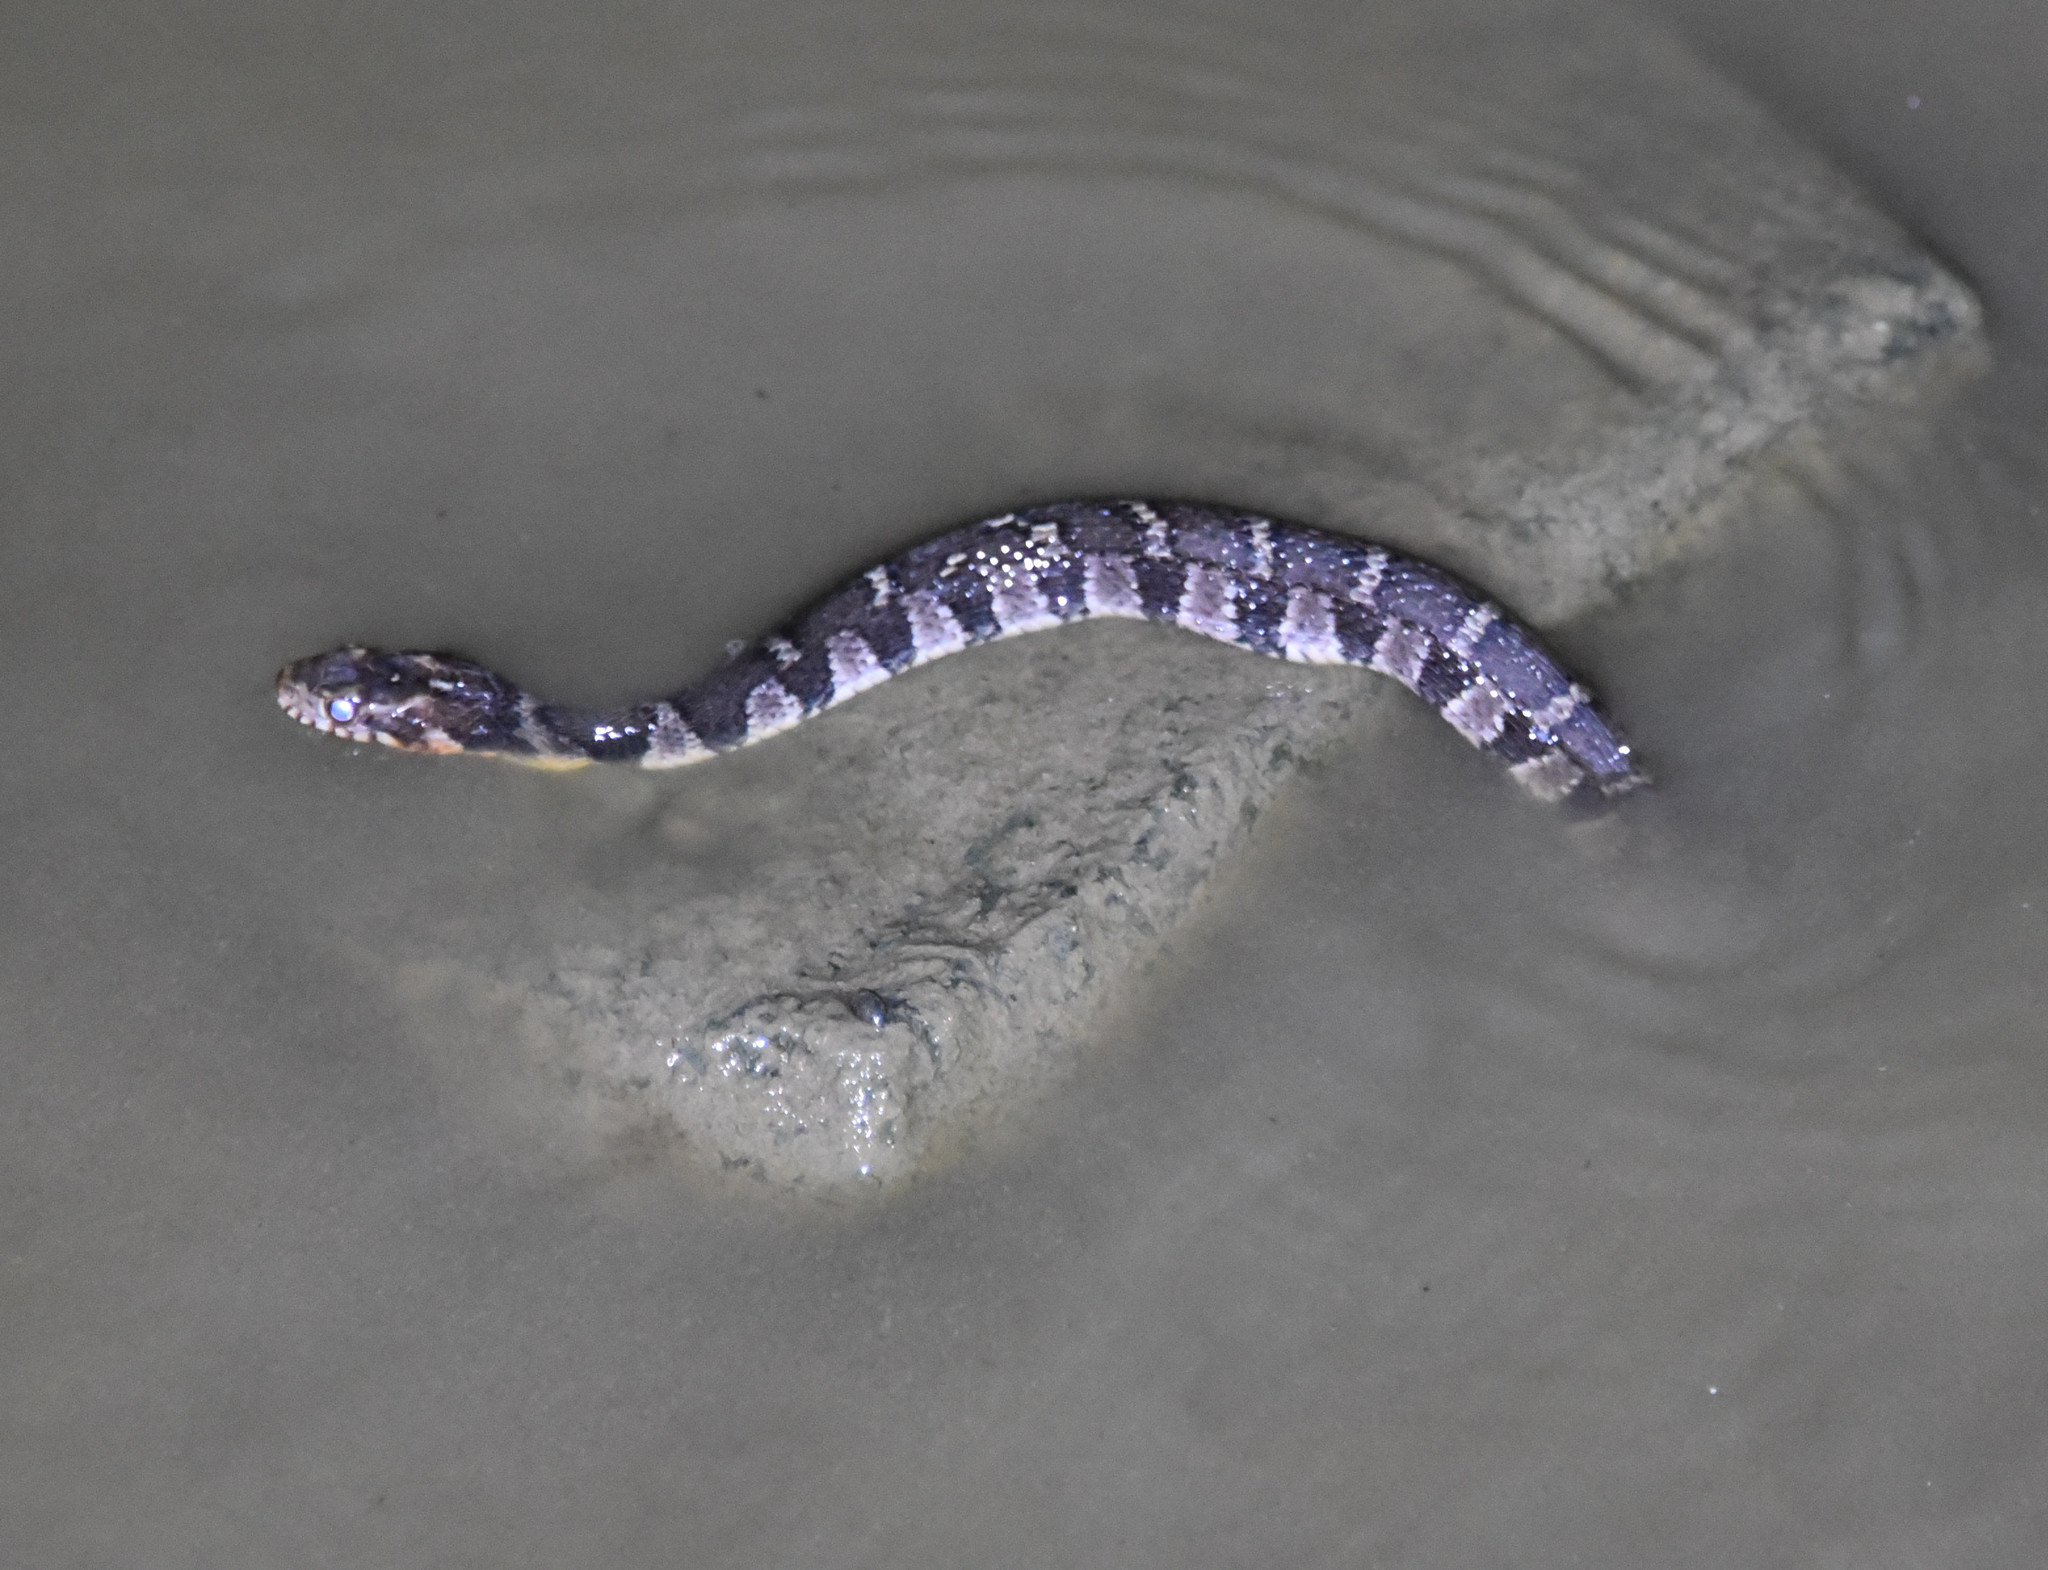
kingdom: Animalia
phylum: Chordata
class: Squamata
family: Colubridae
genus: Nerodia
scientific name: Nerodia erythrogaster
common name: Plainbelly water snake
